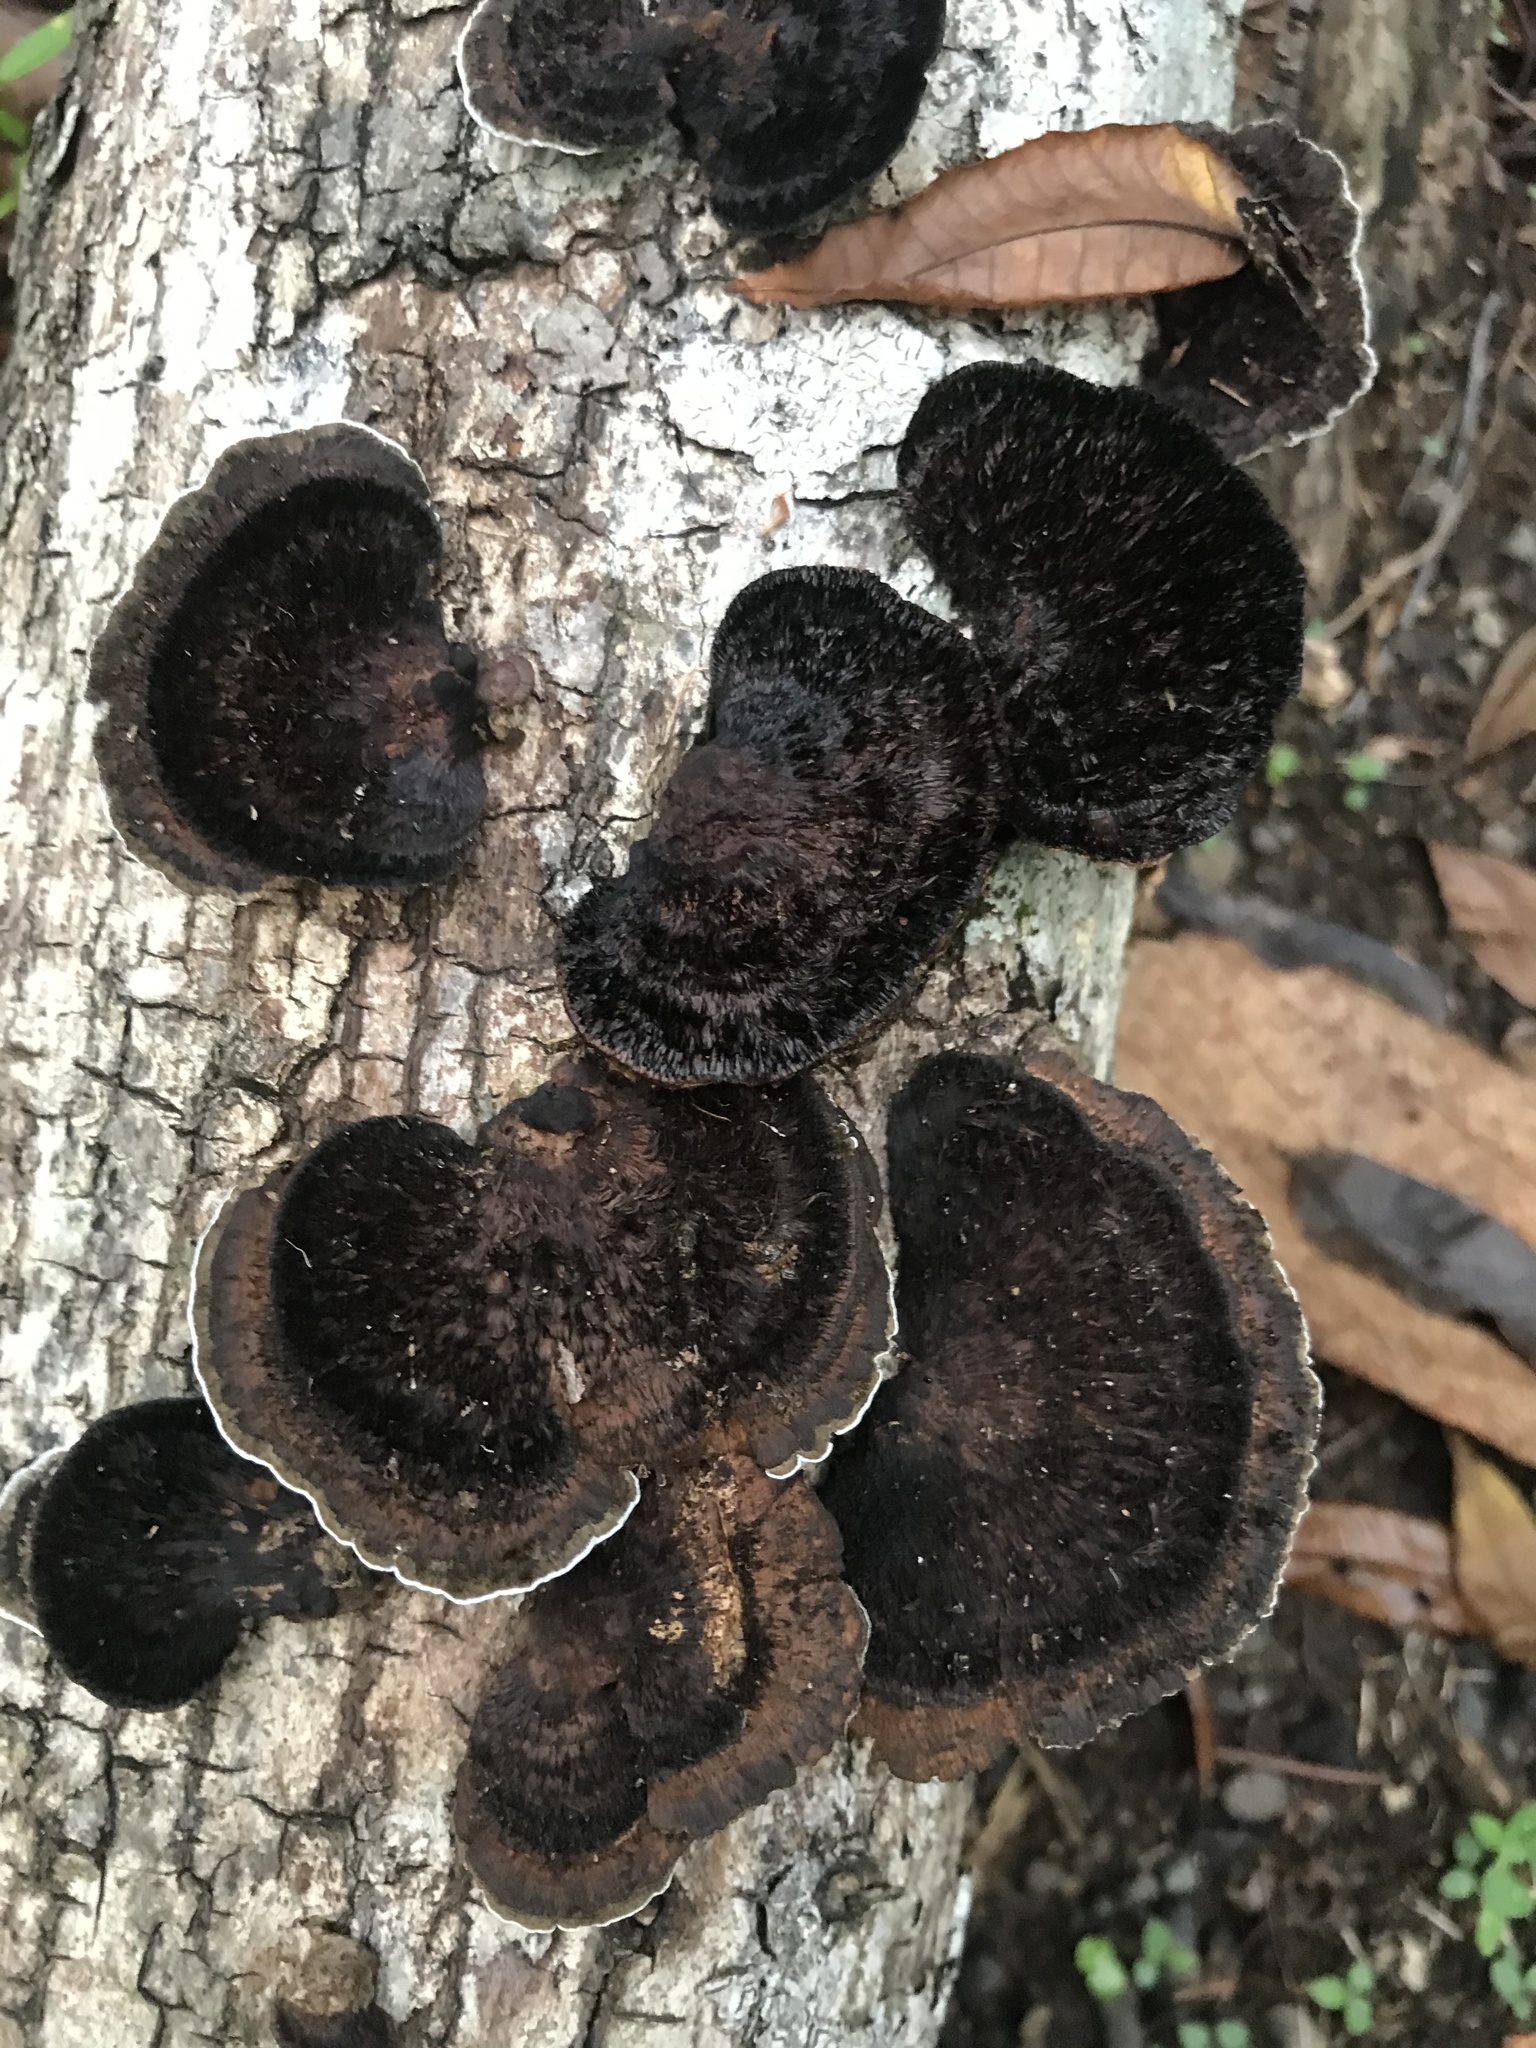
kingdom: Fungi
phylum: Basidiomycota
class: Agaricomycetes
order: Polyporales
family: Cerrenaceae
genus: Cerrena
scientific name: Cerrena hydnoides
